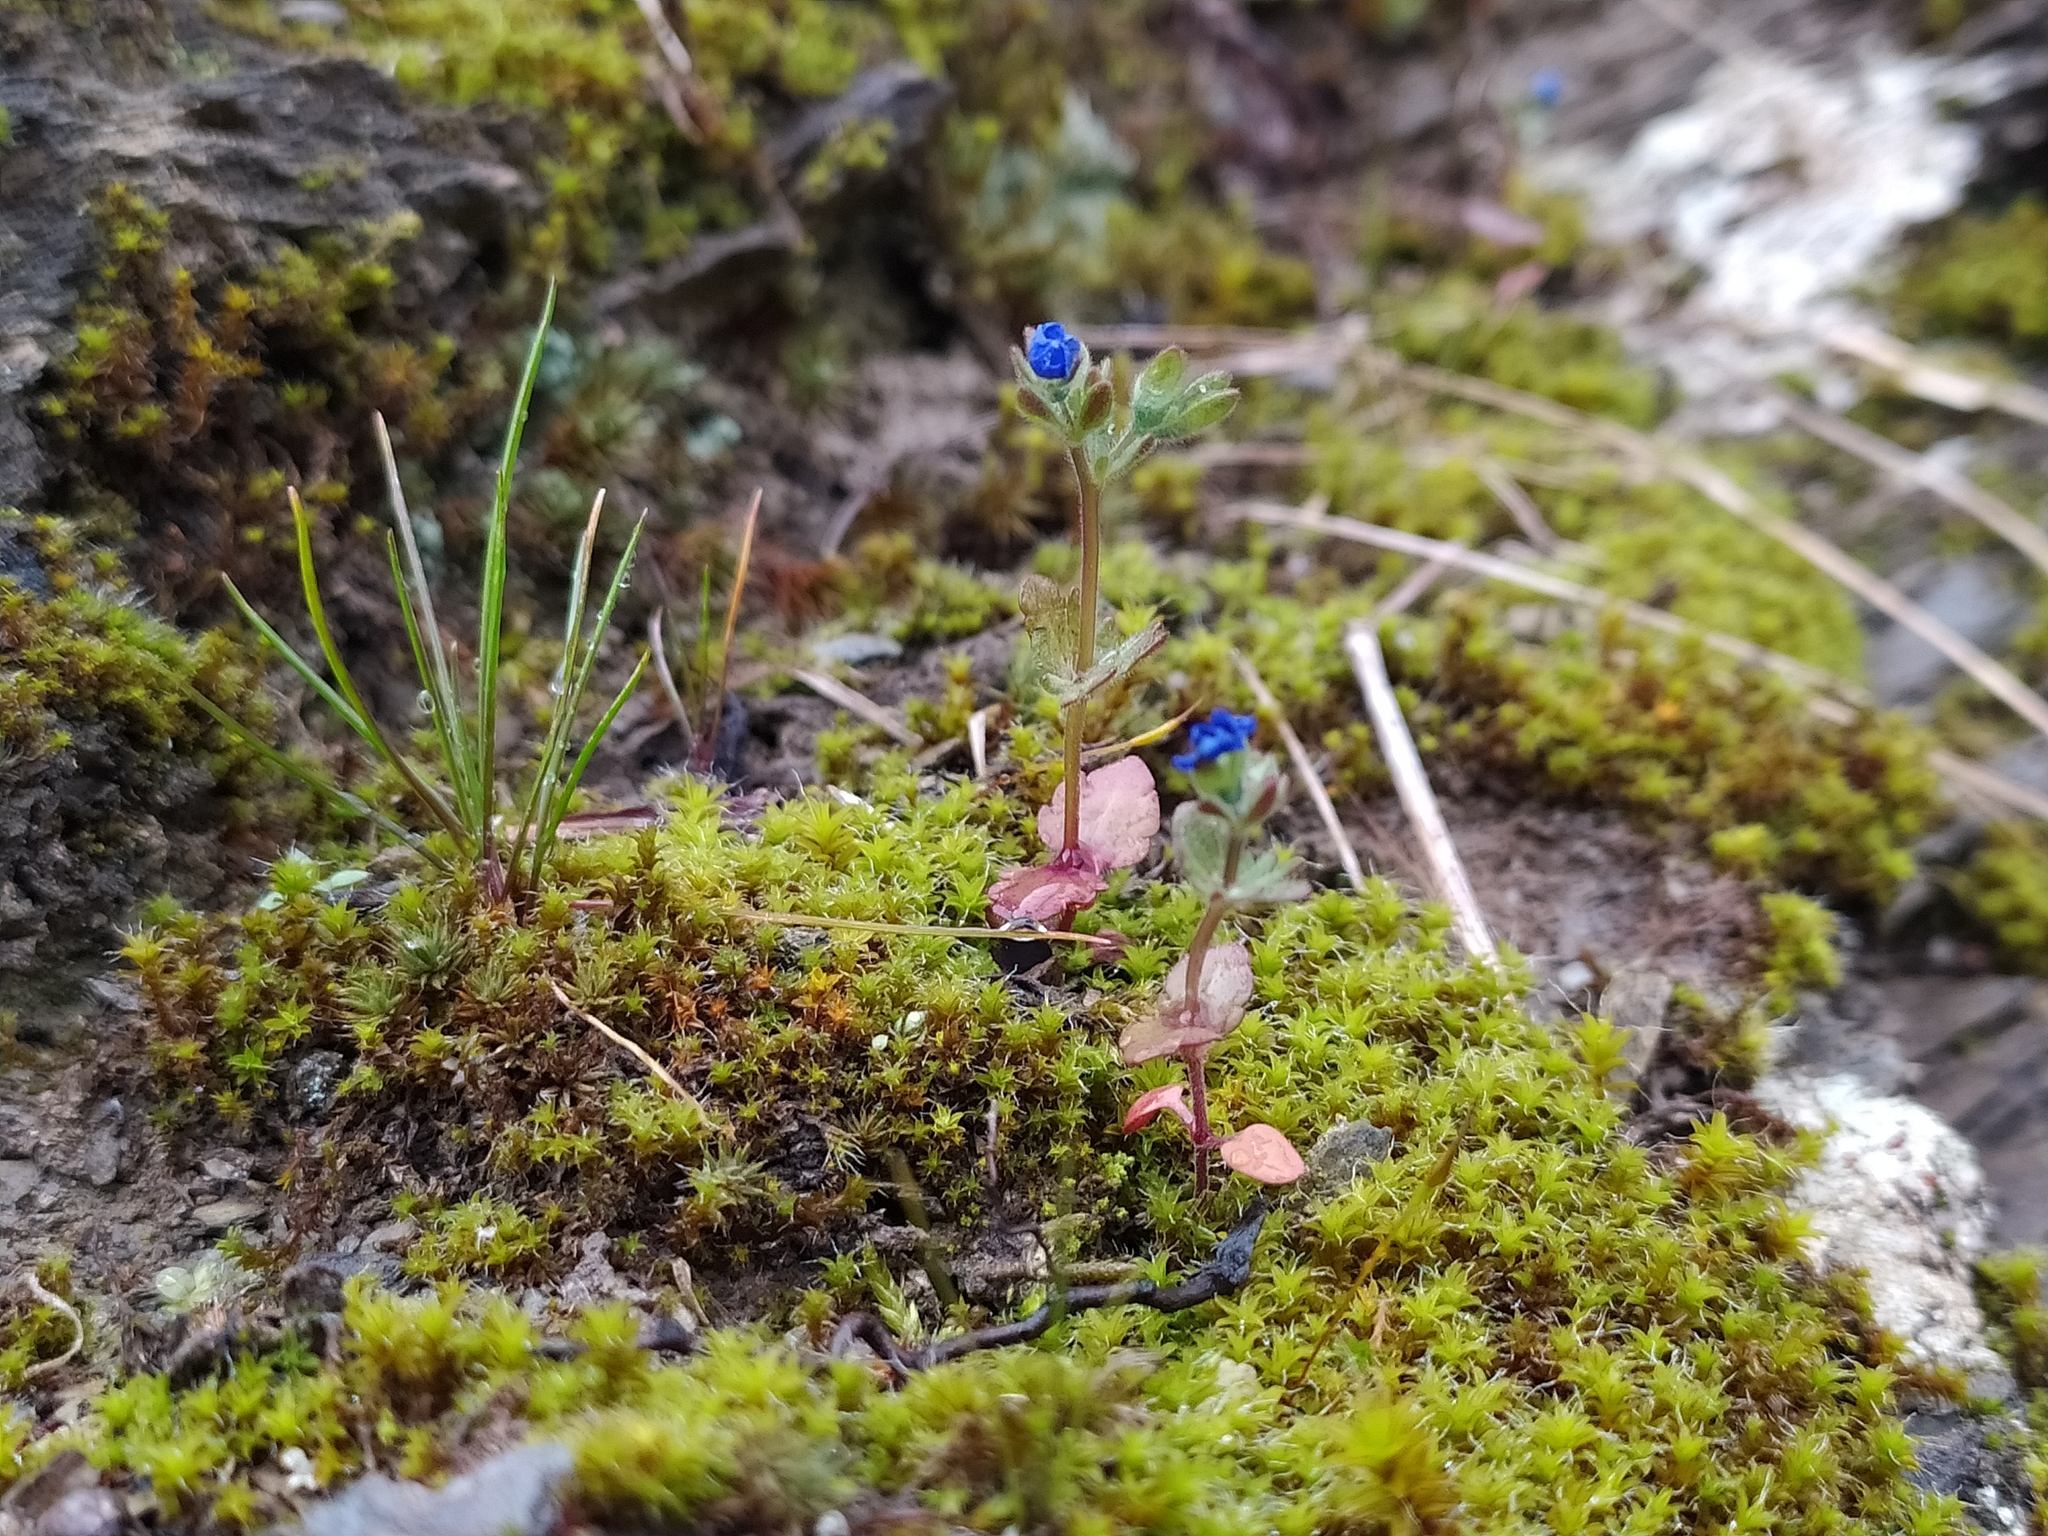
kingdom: Plantae
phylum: Tracheophyta
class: Magnoliopsida
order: Lamiales
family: Plantaginaceae
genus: Veronica
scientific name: Veronica triphyllos
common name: Fingered speedwell
